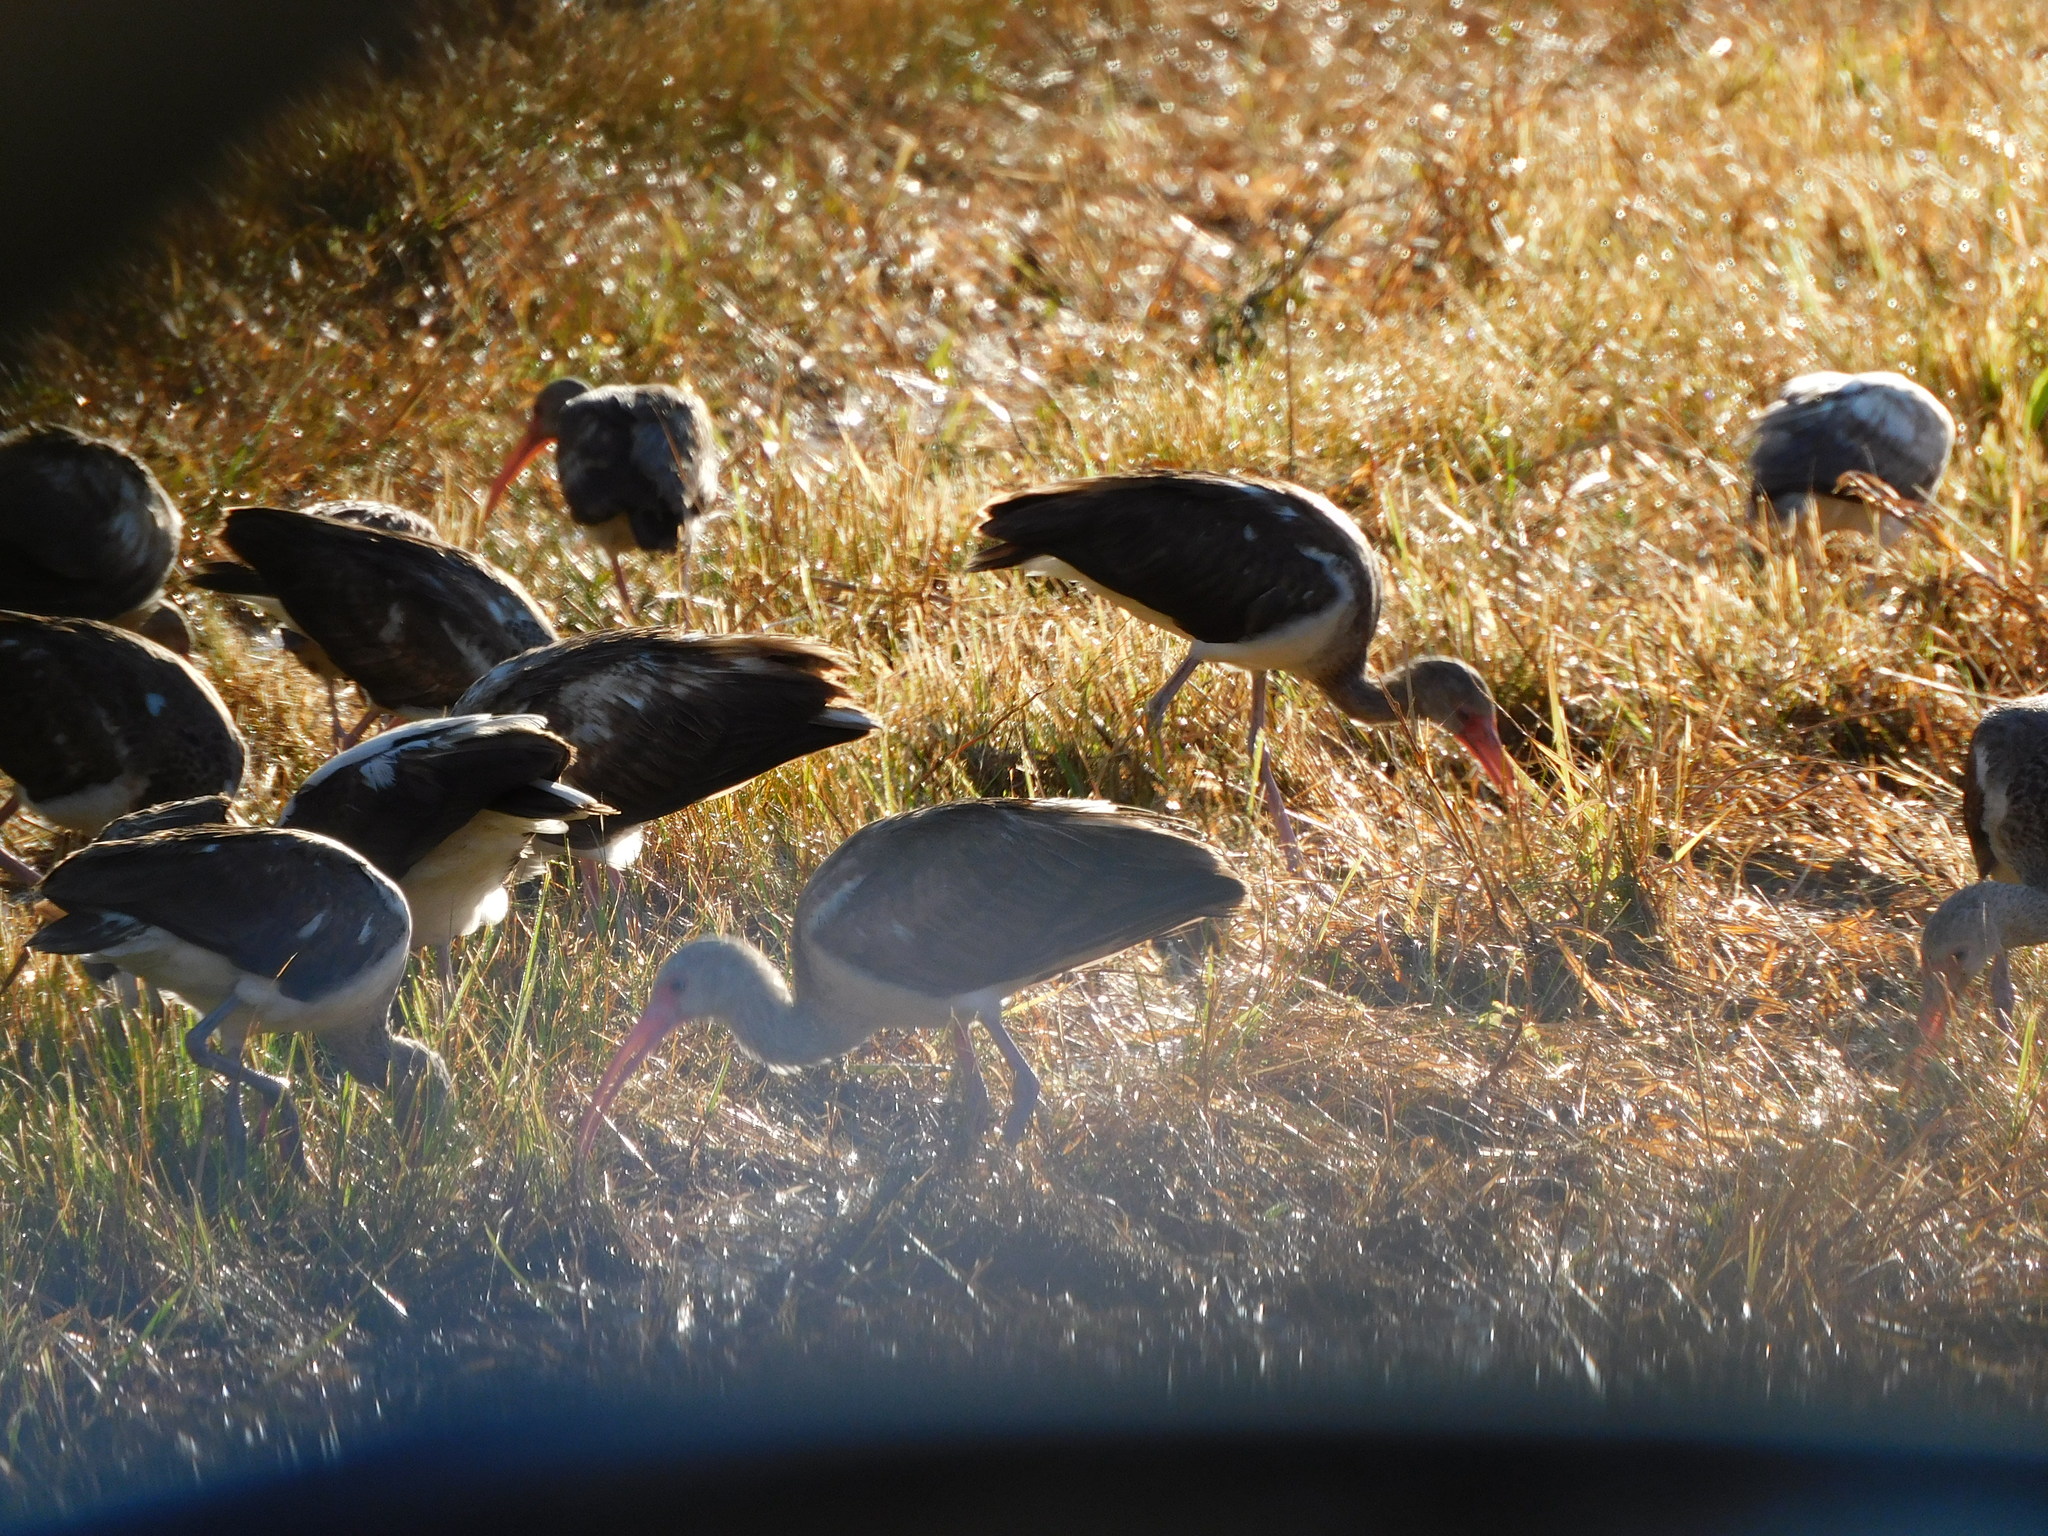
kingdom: Animalia
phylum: Chordata
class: Aves
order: Pelecaniformes
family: Threskiornithidae
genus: Eudocimus
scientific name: Eudocimus albus
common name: White ibis
